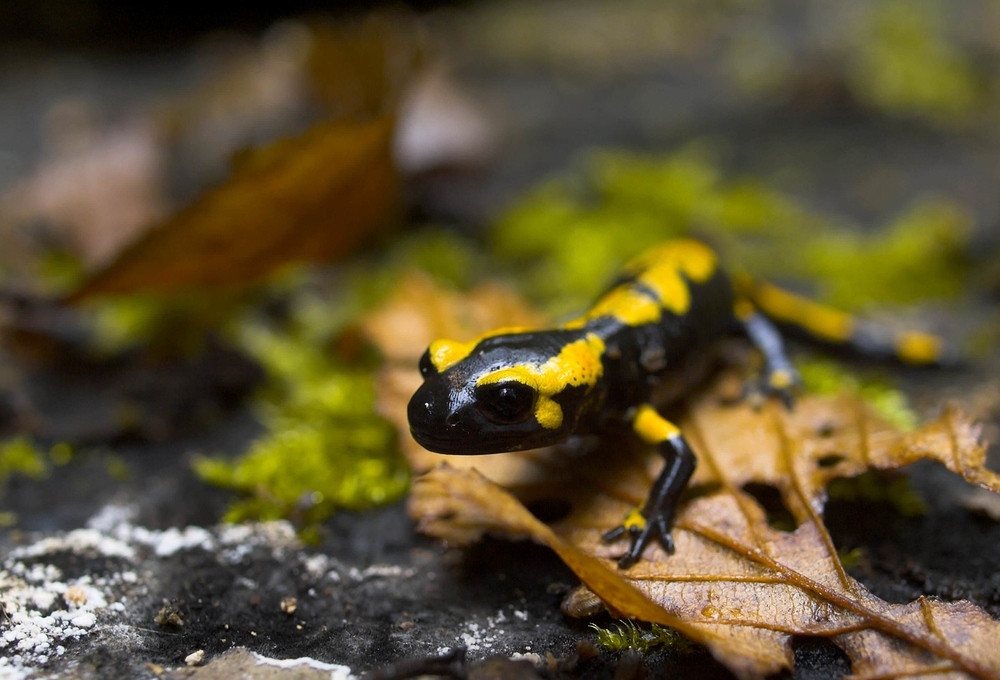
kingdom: Animalia
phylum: Chordata
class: Amphibia
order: Caudata
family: Salamandridae
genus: Salamandra
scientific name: Salamandra salamandra
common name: Fire salamander
